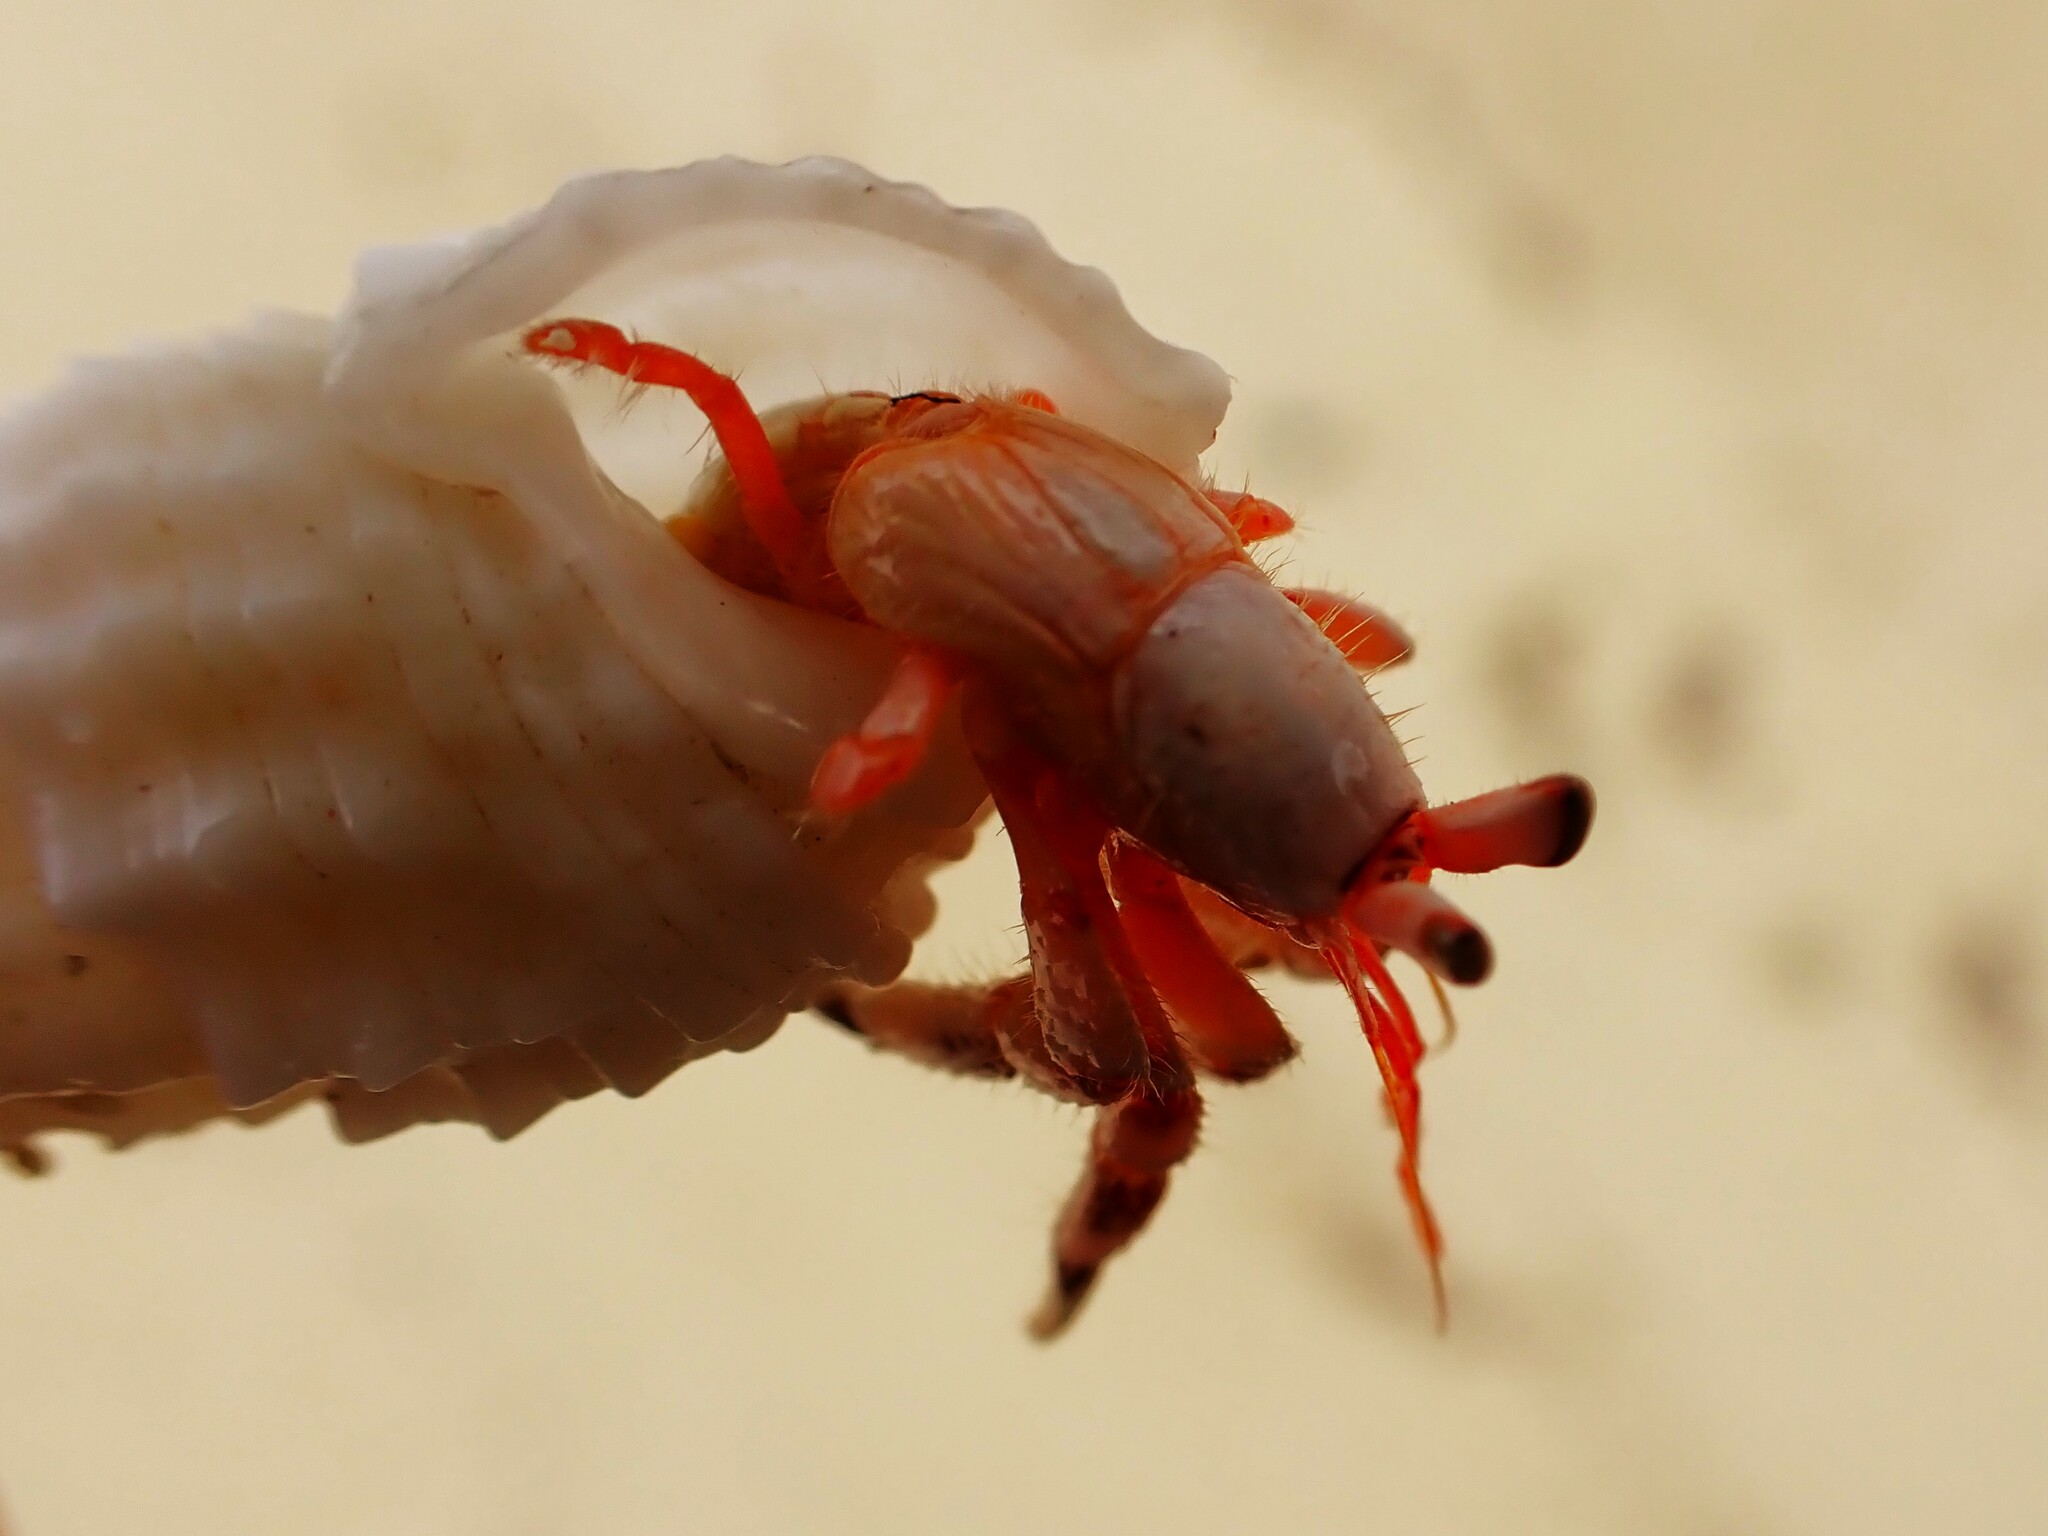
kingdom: Animalia
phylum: Arthropoda
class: Malacostraca
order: Decapoda
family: Coenobitidae
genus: Coenobita
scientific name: Coenobita carnescens
